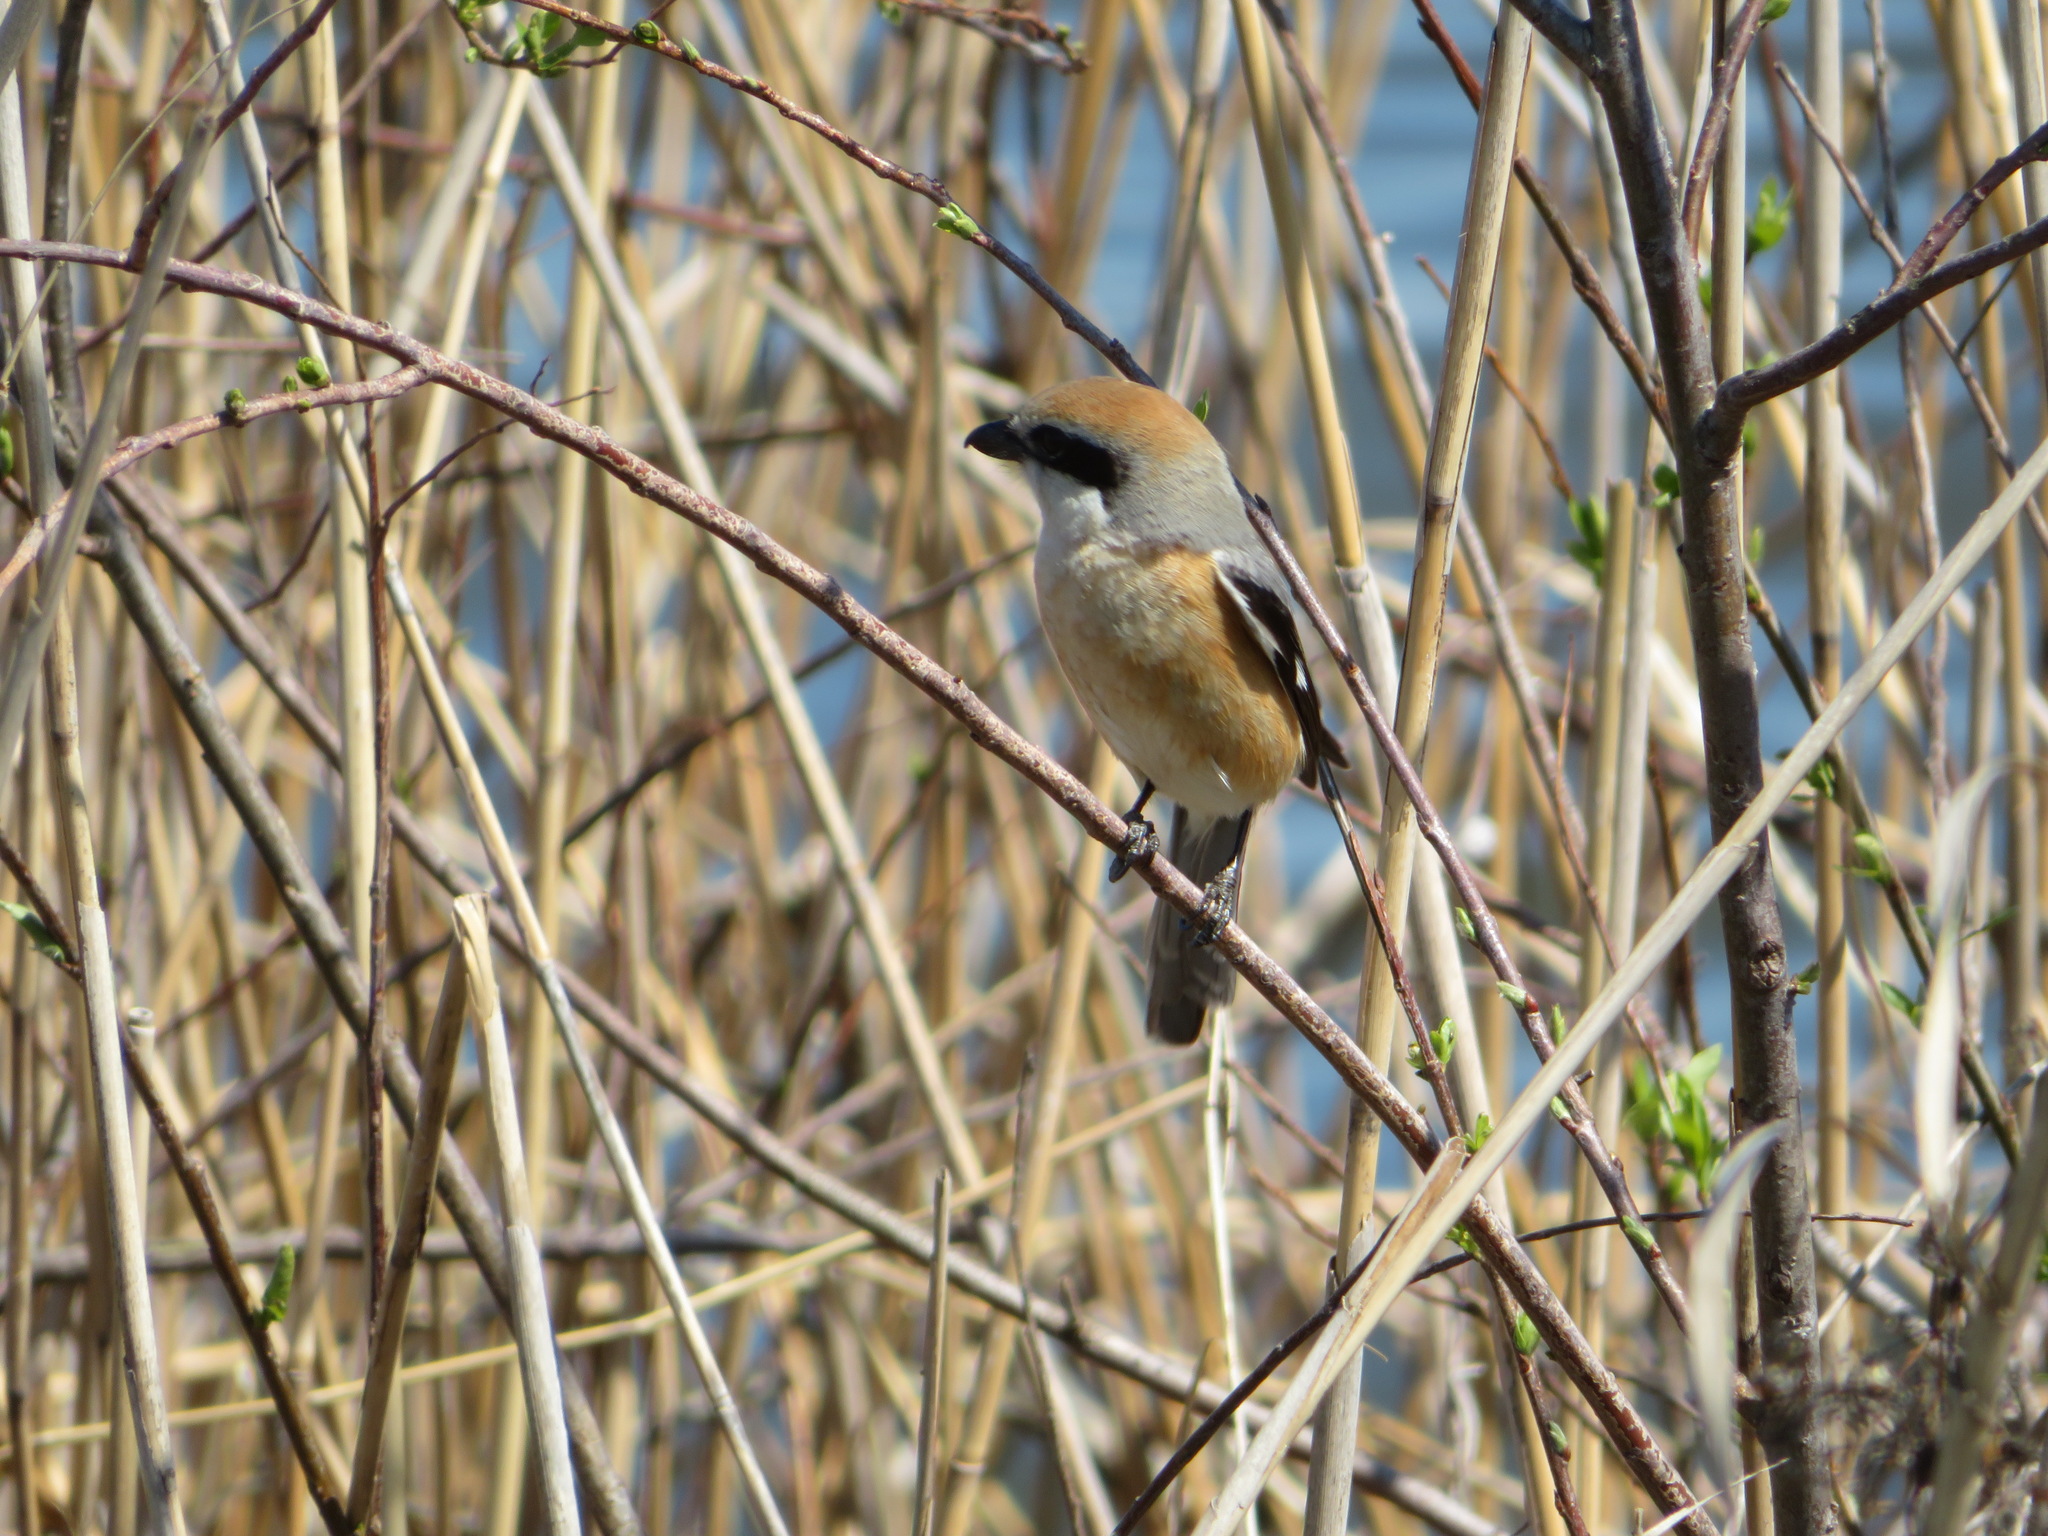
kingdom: Animalia
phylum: Chordata
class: Aves
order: Passeriformes
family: Laniidae
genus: Lanius
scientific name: Lanius bucephalus
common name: Bull-headed shrike
